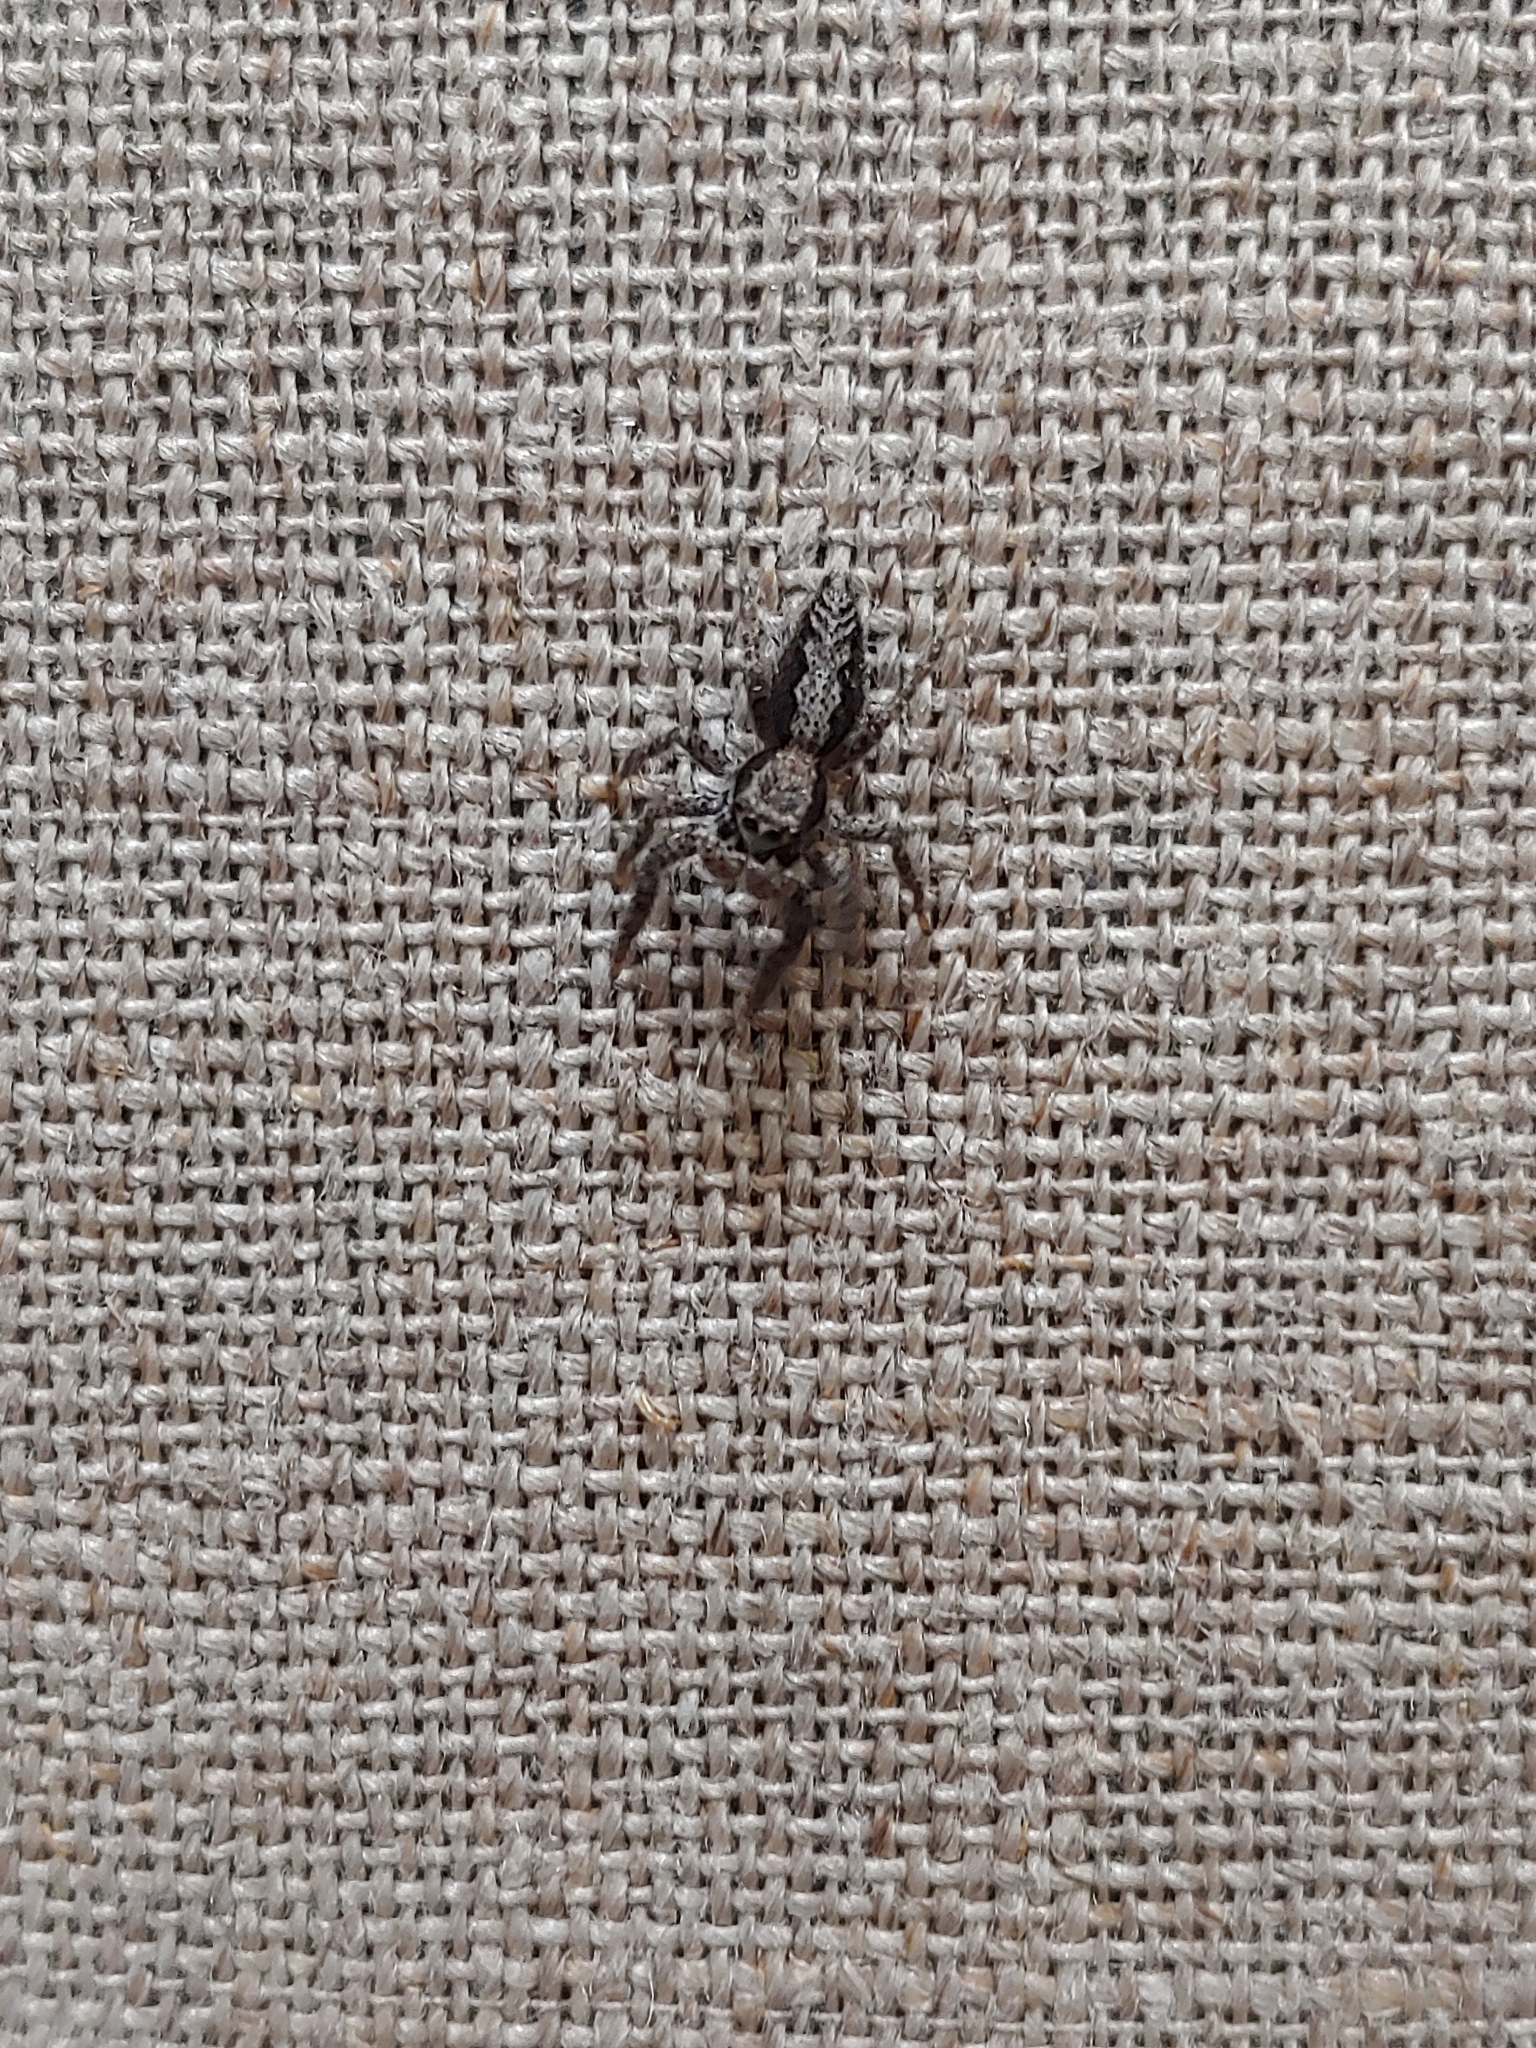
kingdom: Animalia
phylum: Arthropoda
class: Arachnida
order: Araneae
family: Salticidae
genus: Platycryptus
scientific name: Platycryptus californicus
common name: Jumping spiders
